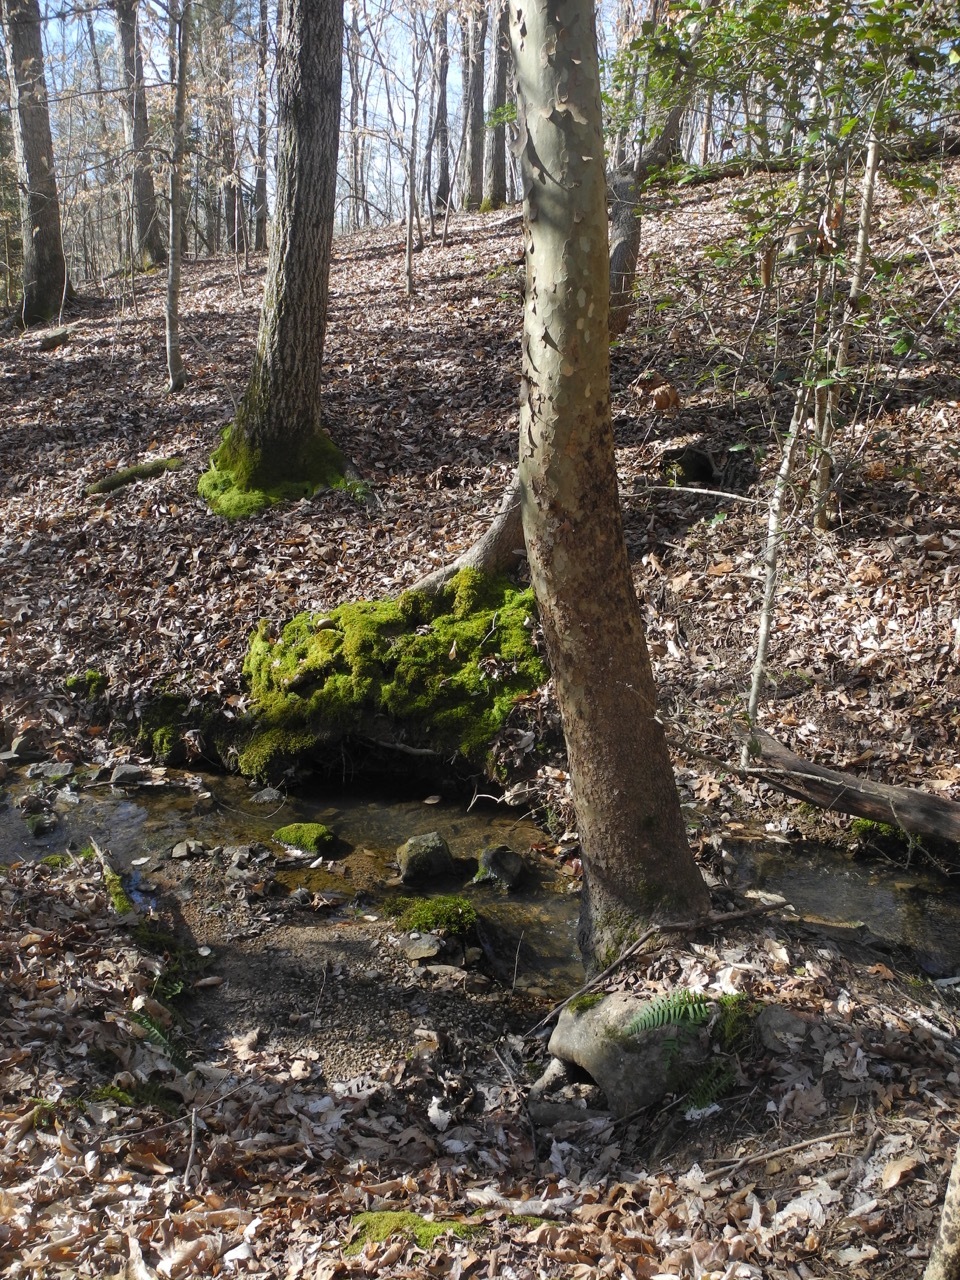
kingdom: Plantae
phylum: Tracheophyta
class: Magnoliopsida
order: Proteales
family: Platanaceae
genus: Platanus
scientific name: Platanus occidentalis
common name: American sycamore
